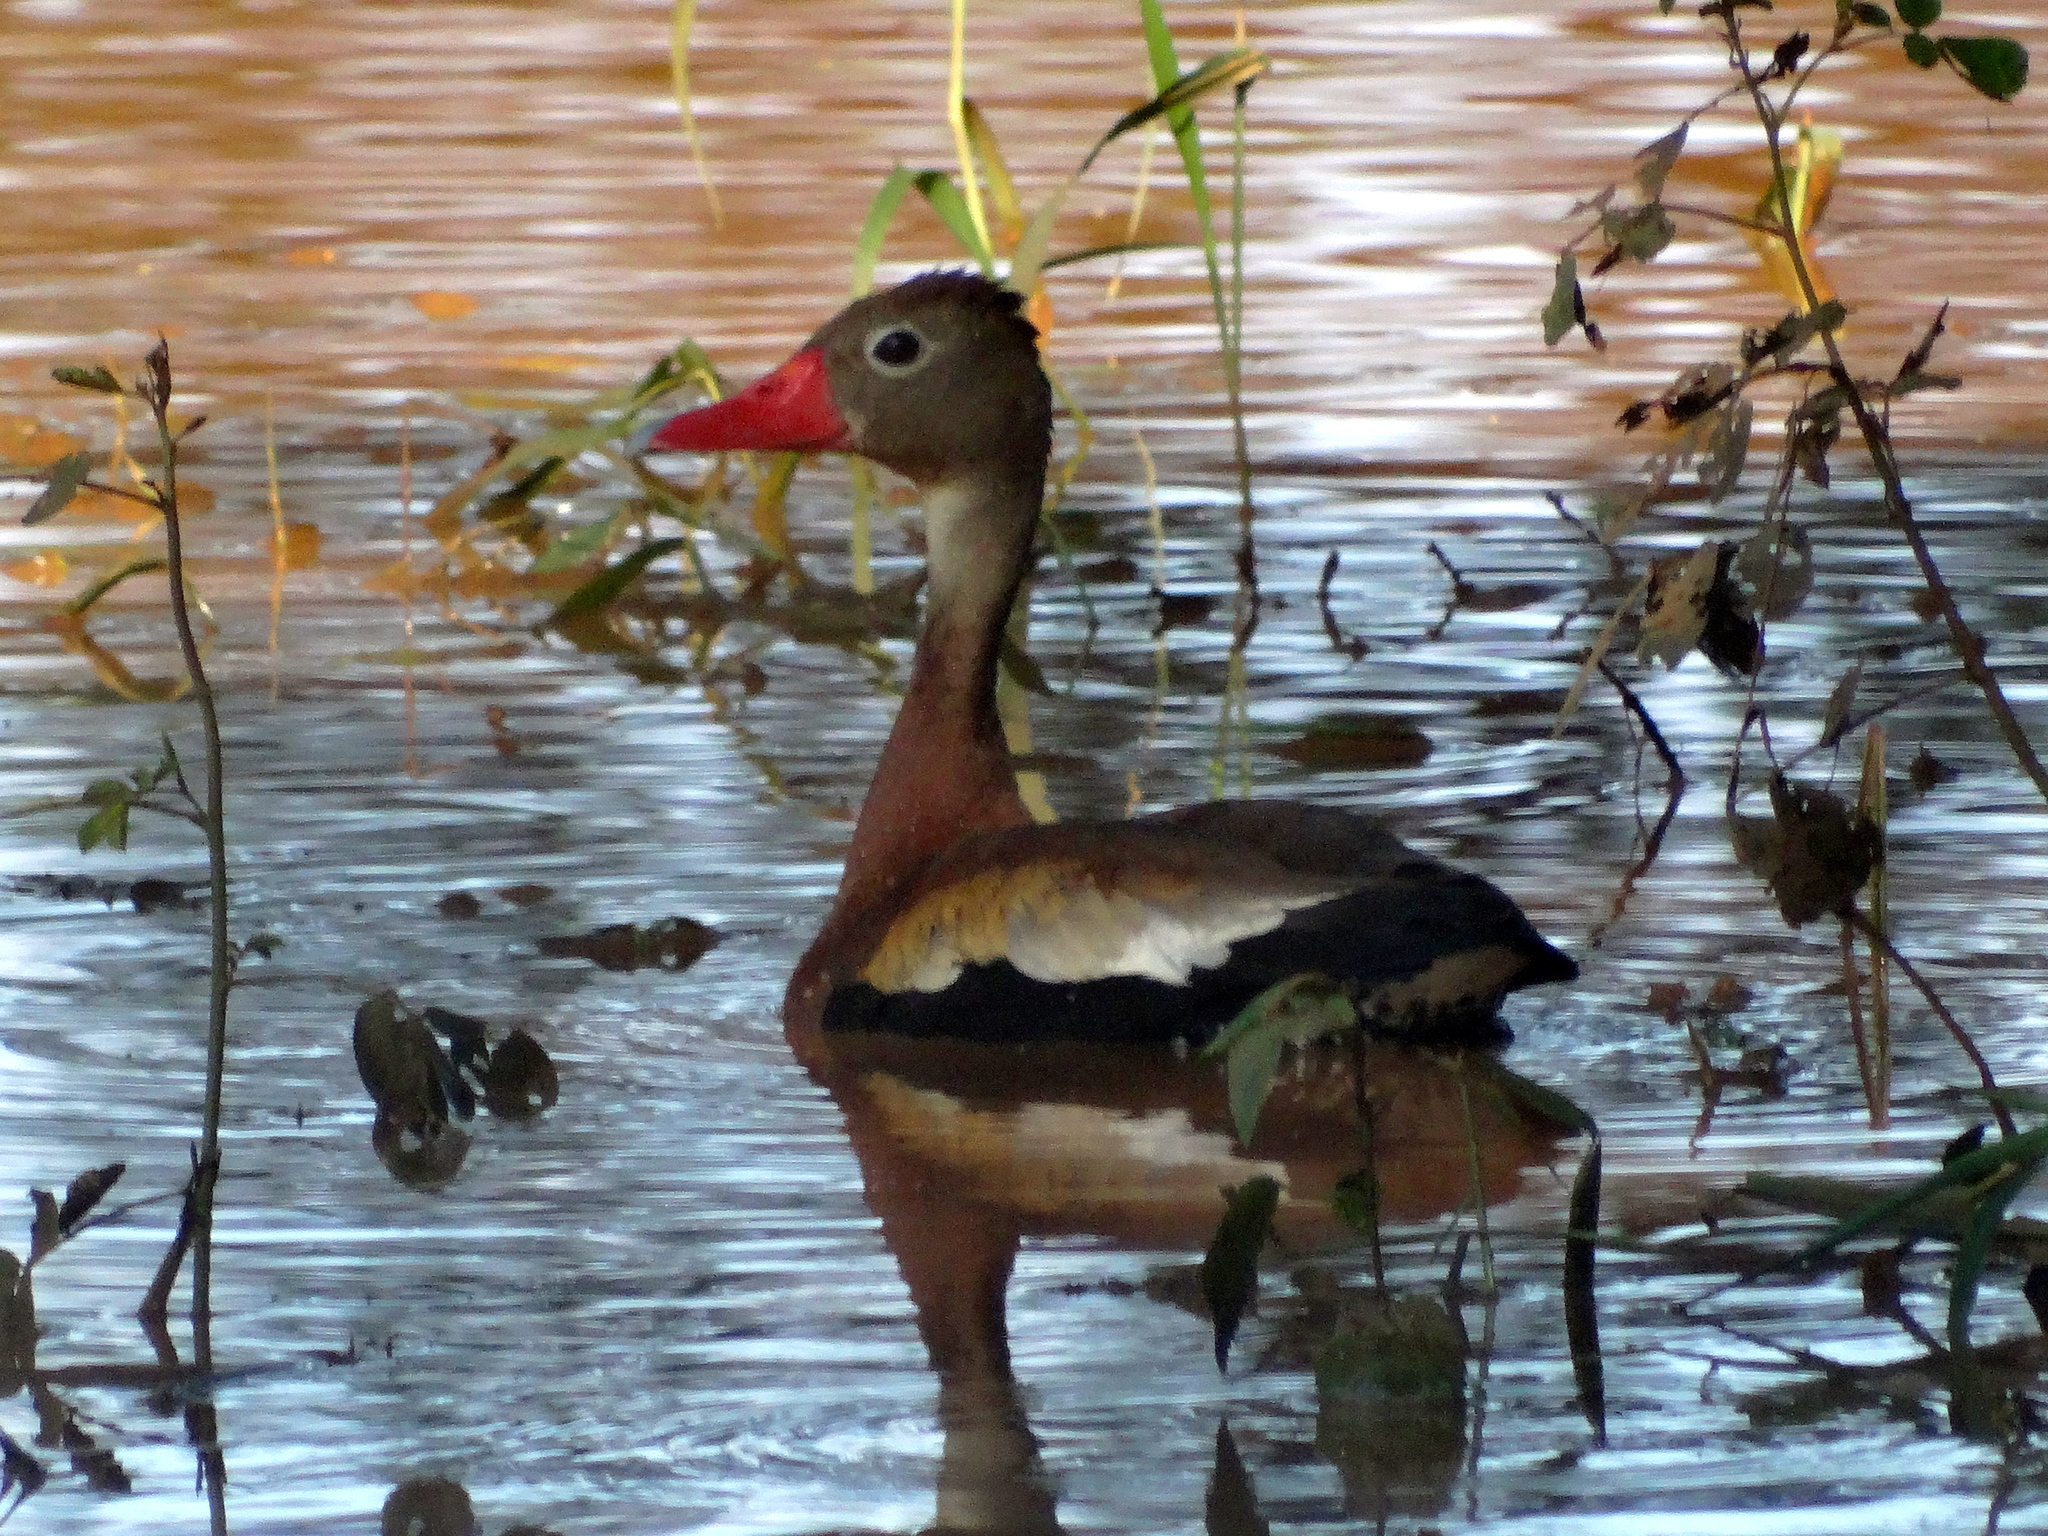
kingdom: Animalia
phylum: Chordata
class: Aves
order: Anseriformes
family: Anatidae
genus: Dendrocygna
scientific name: Dendrocygna autumnalis
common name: Black-bellied whistling duck
